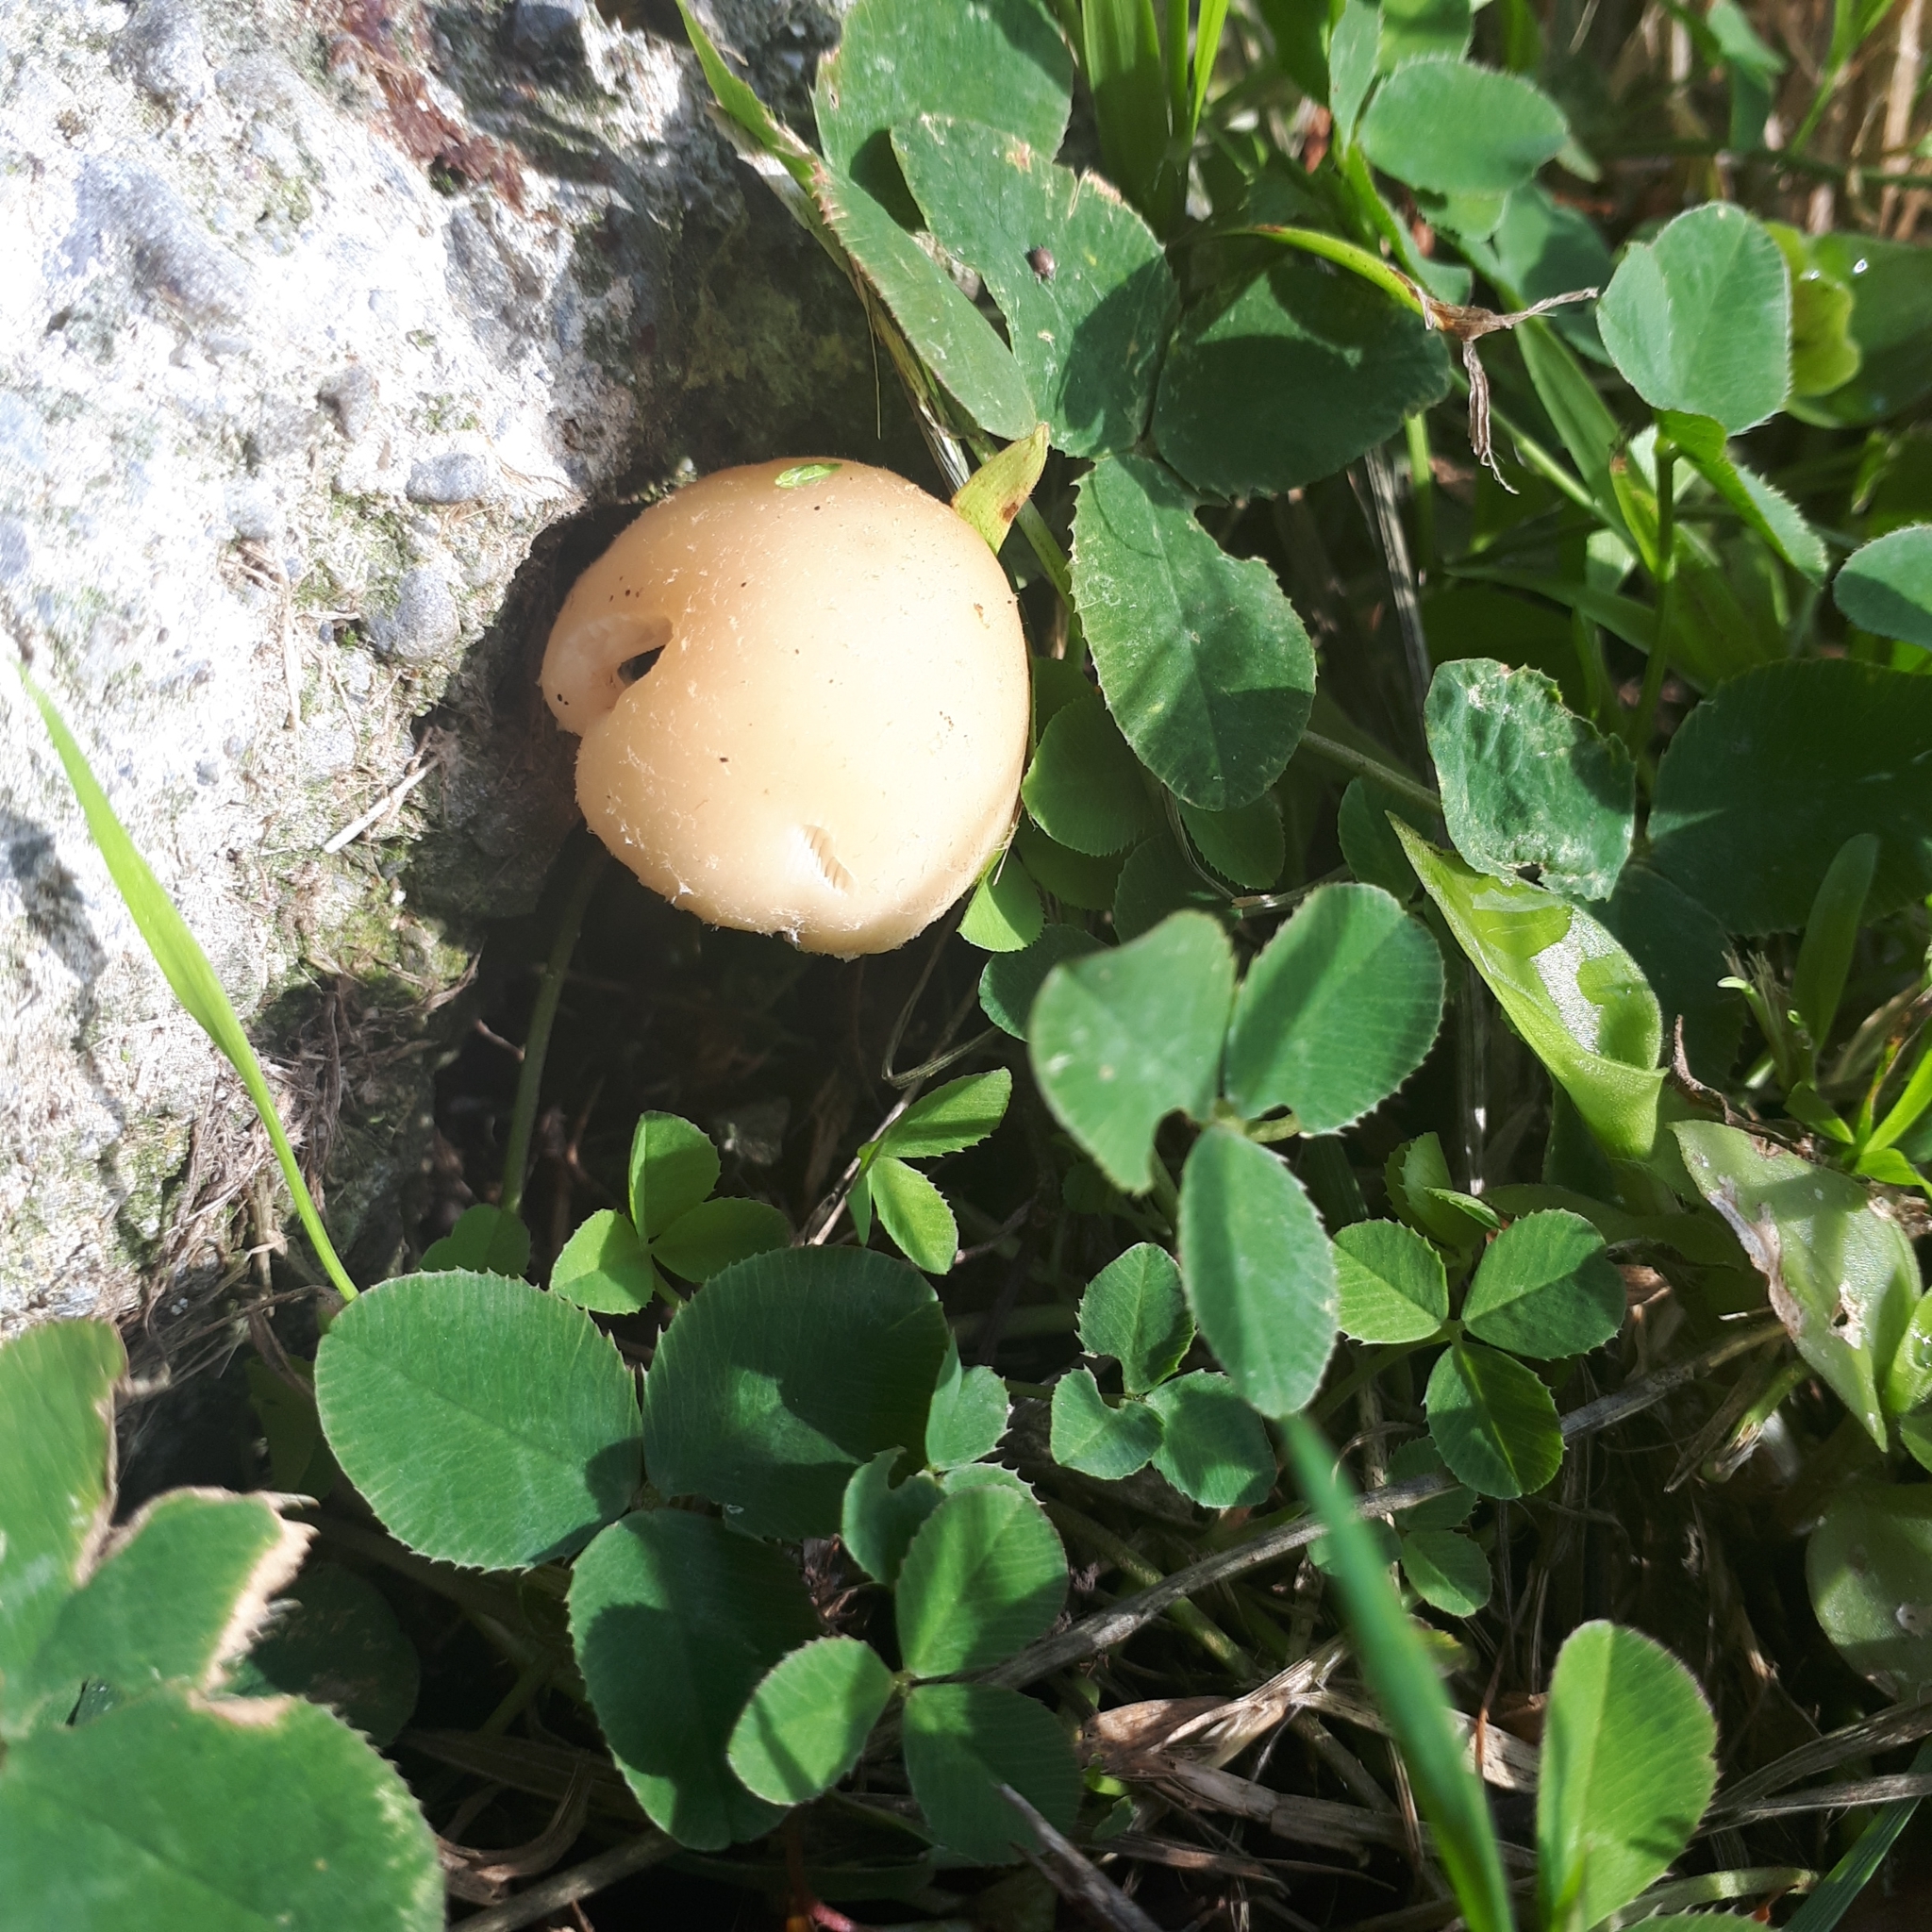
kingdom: Fungi
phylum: Basidiomycota
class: Agaricomycetes
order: Agaricales
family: Psathyrellaceae
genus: Candolleomyces
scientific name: Candolleomyces candolleanus
